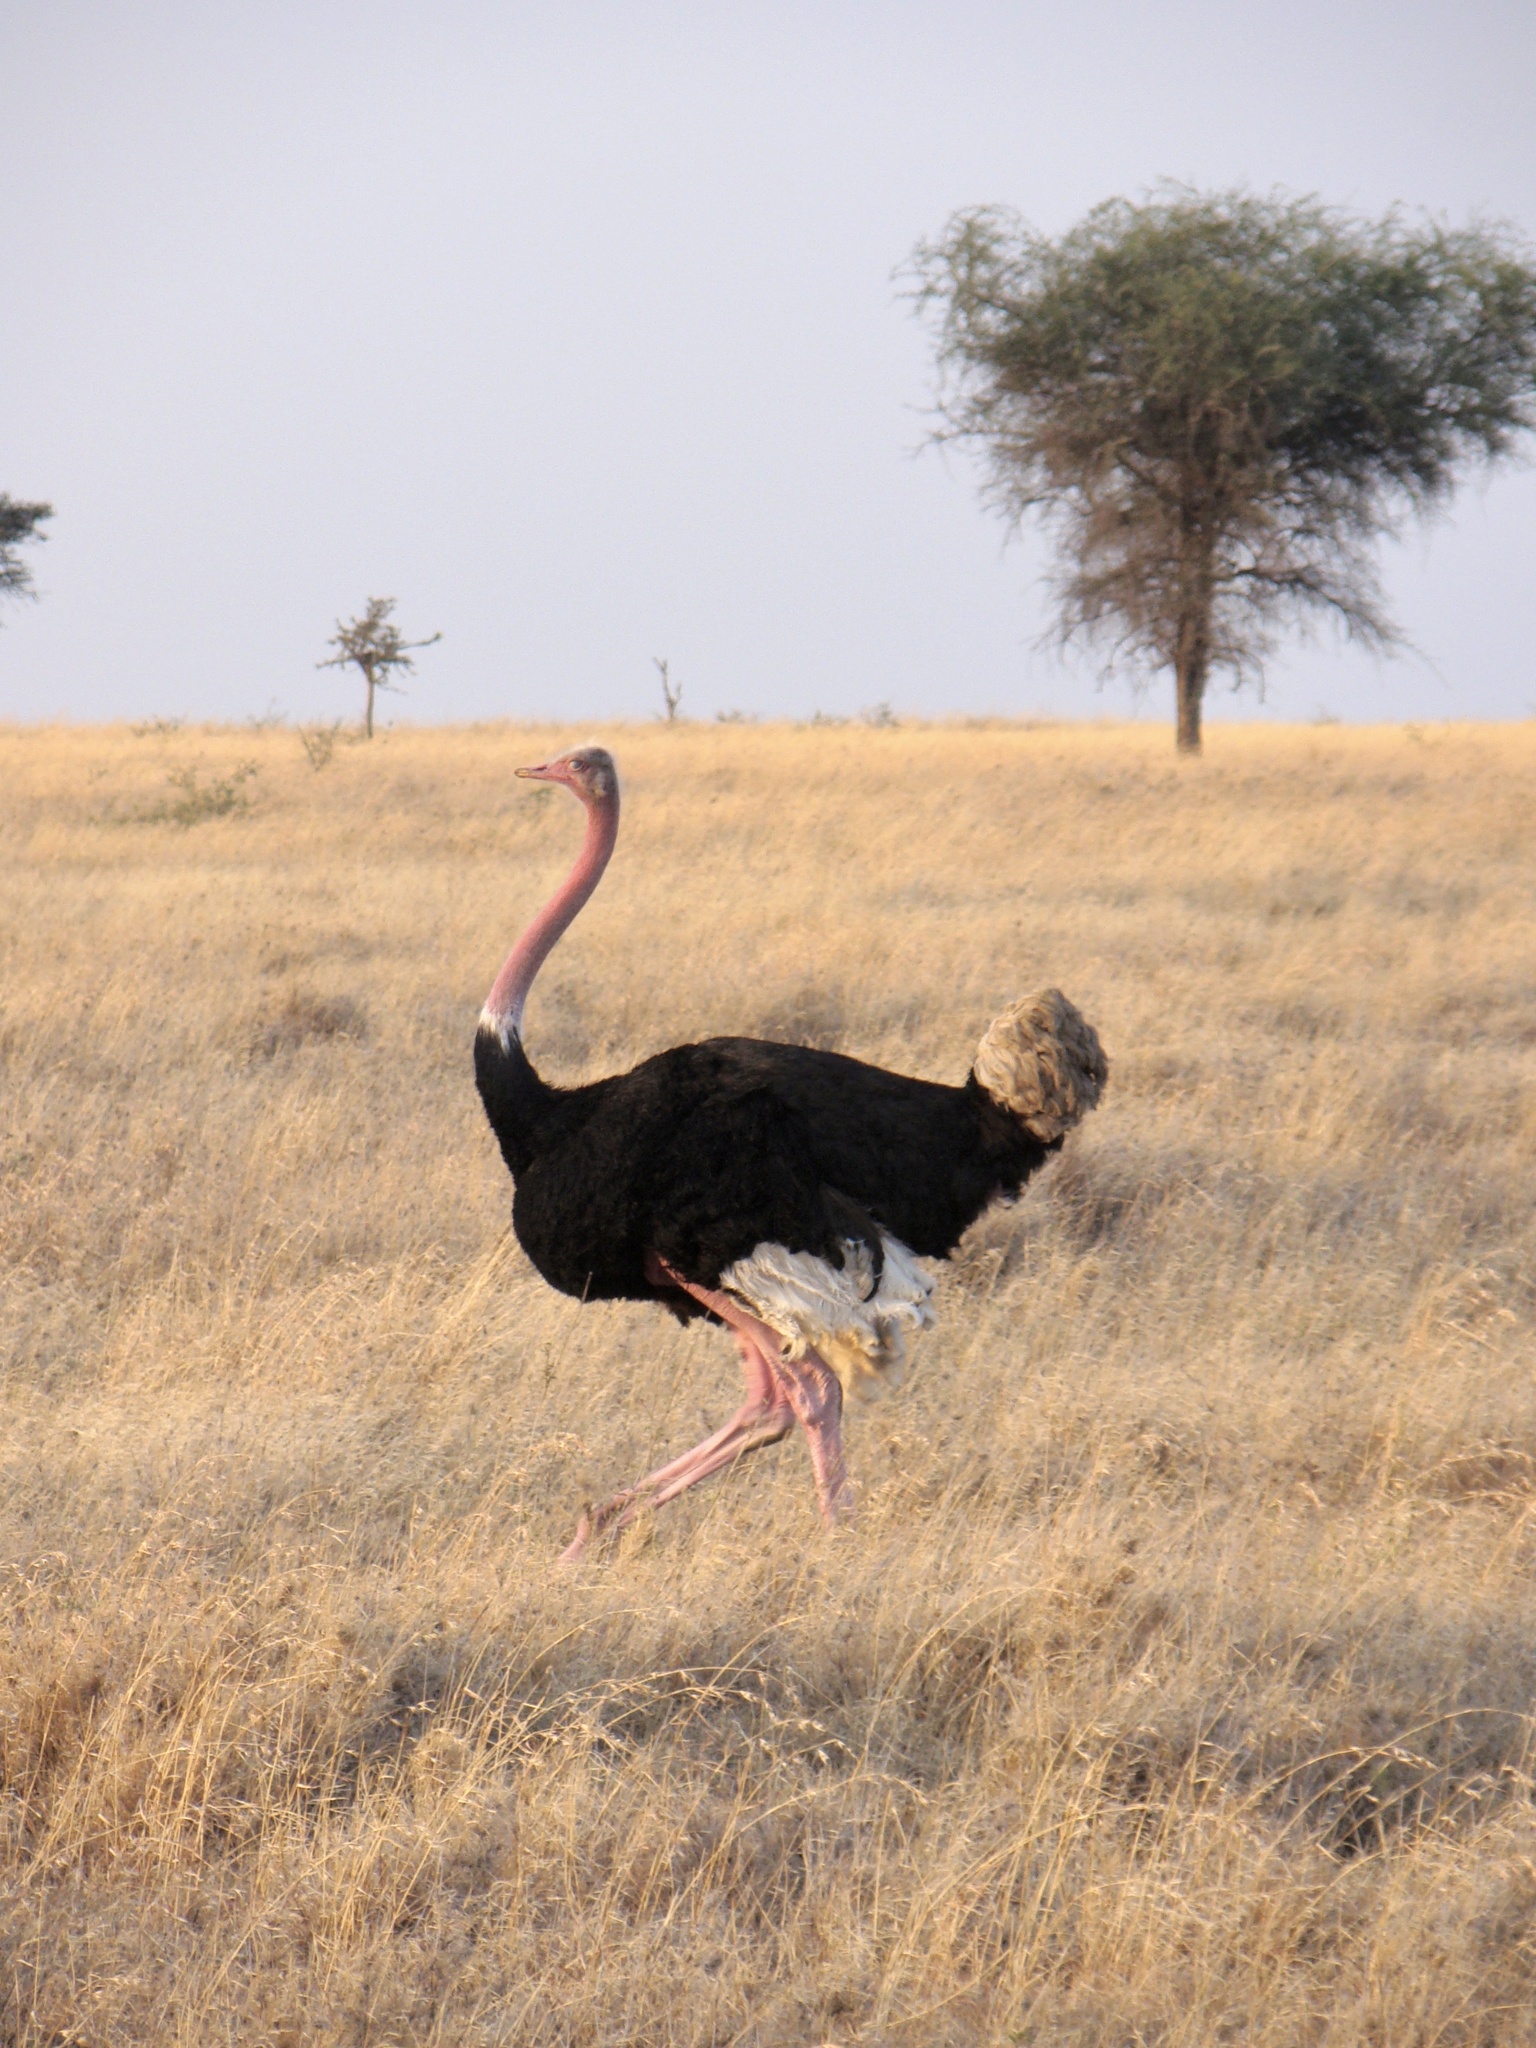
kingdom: Animalia
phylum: Chordata
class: Aves
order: Struthioniformes
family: Struthionidae
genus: Struthio
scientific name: Struthio camelus
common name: Common ostrich
